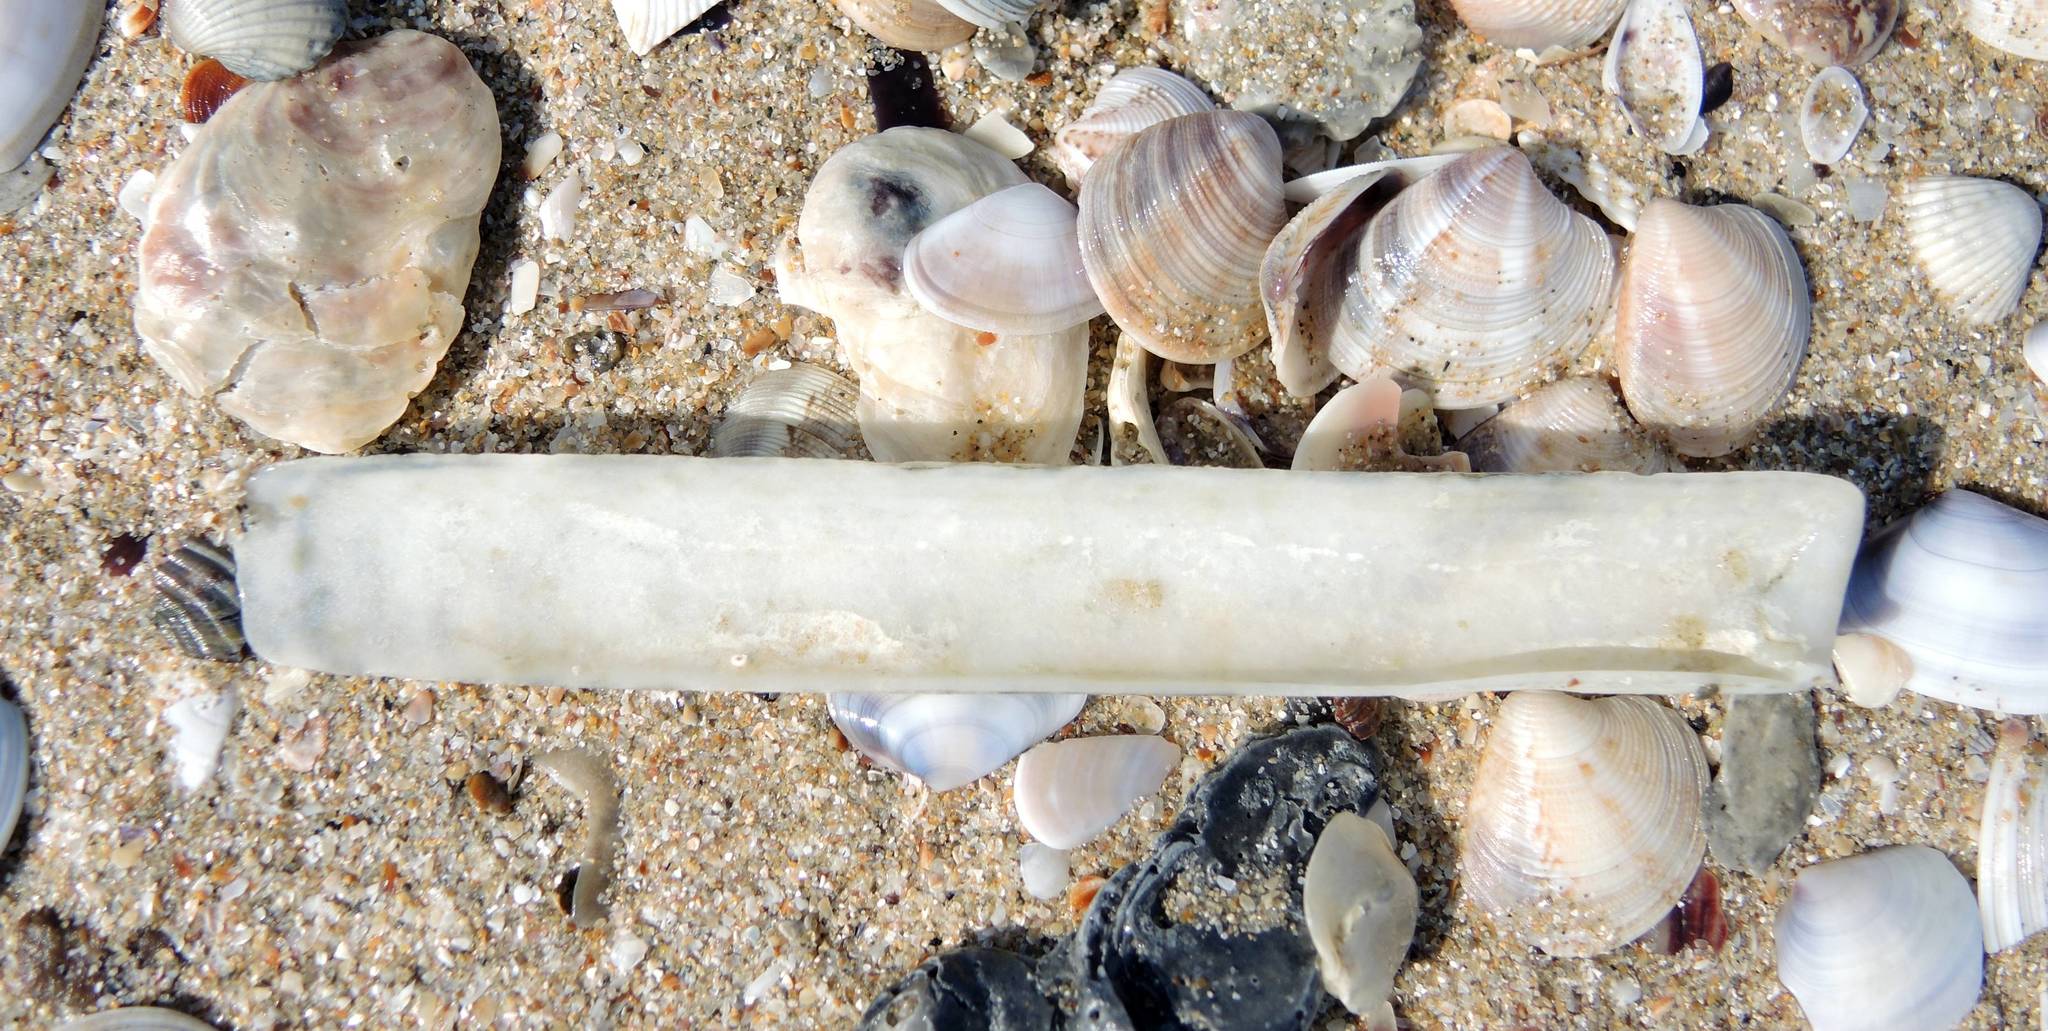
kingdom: Animalia
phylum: Mollusca
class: Bivalvia
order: Adapedonta
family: Solenidae
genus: Solen
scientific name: Solen marginatus
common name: Grooved razor shell
